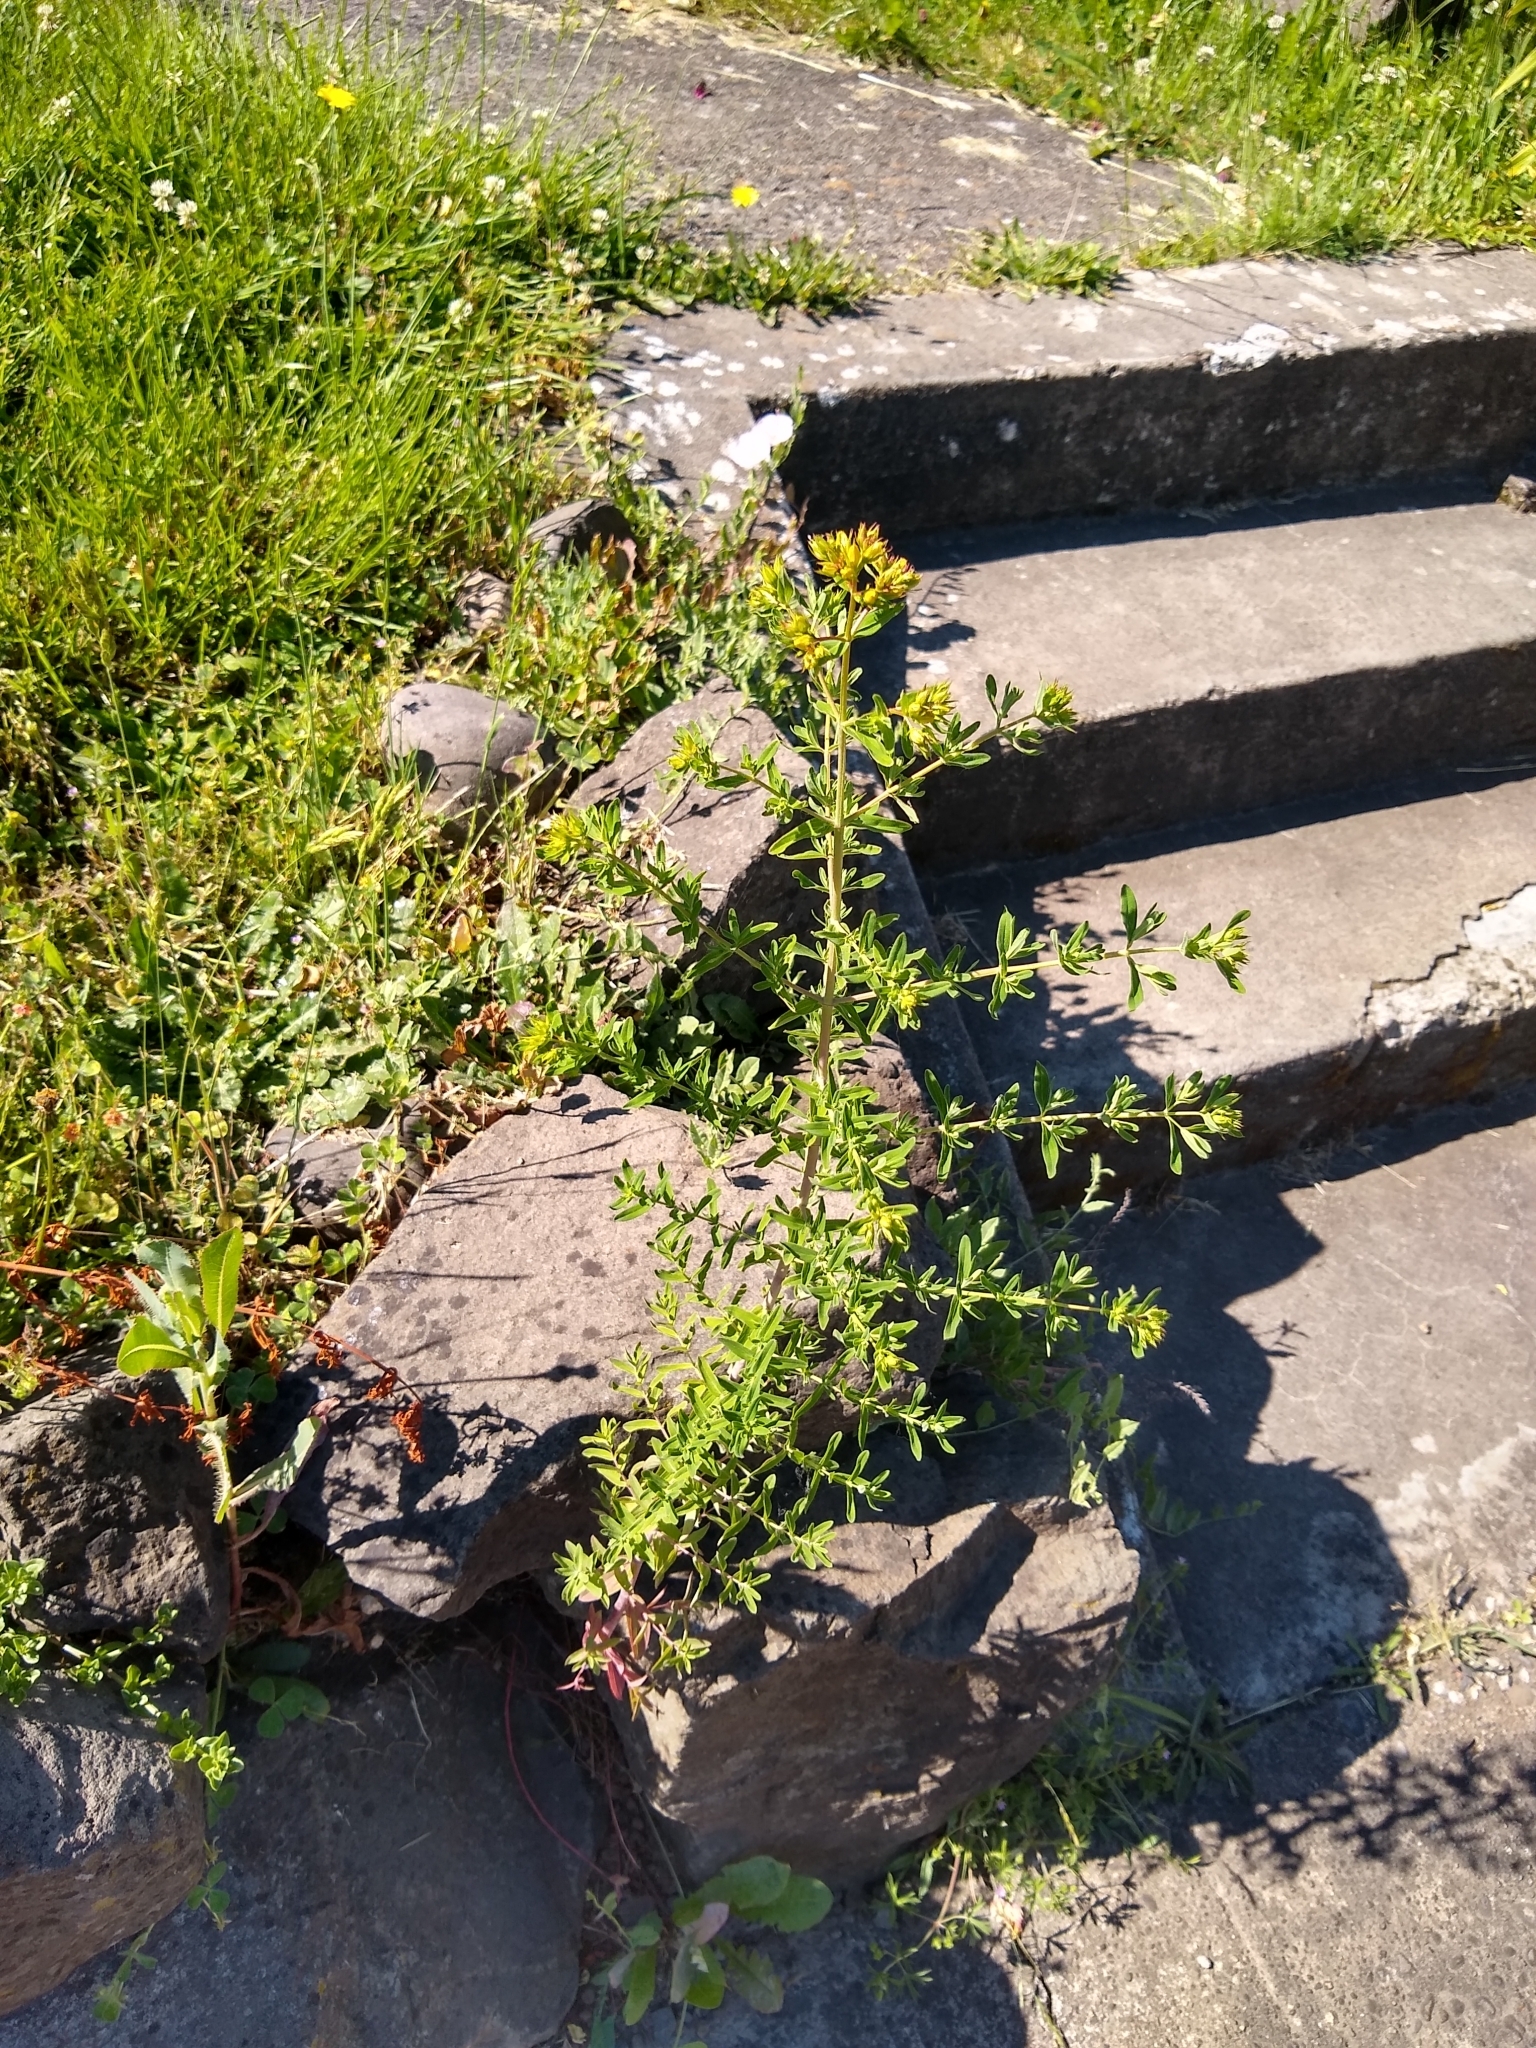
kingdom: Plantae
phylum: Tracheophyta
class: Magnoliopsida
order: Malpighiales
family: Hypericaceae
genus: Hypericum
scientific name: Hypericum perforatum
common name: Common st. johnswort
